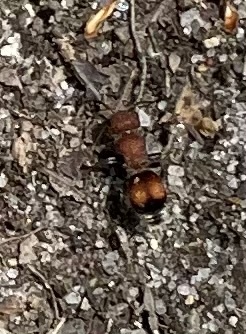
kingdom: Animalia
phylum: Arthropoda
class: Insecta
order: Hymenoptera
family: Mutillidae
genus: Pseudomethoca
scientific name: Pseudomethoca
